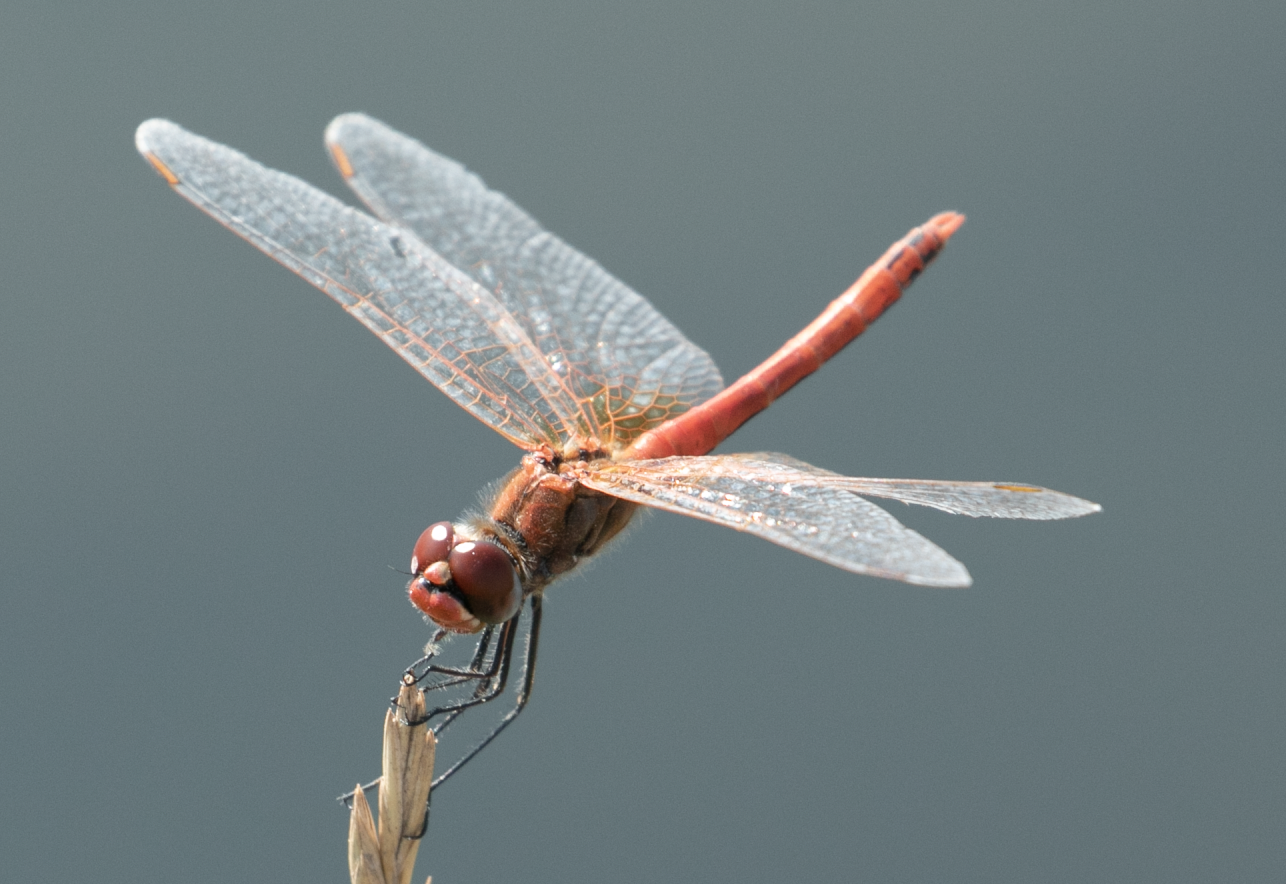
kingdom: Animalia
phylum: Arthropoda
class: Insecta
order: Odonata
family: Libellulidae
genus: Sympetrum
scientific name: Sympetrum fonscolombii
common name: Red-veined darter
